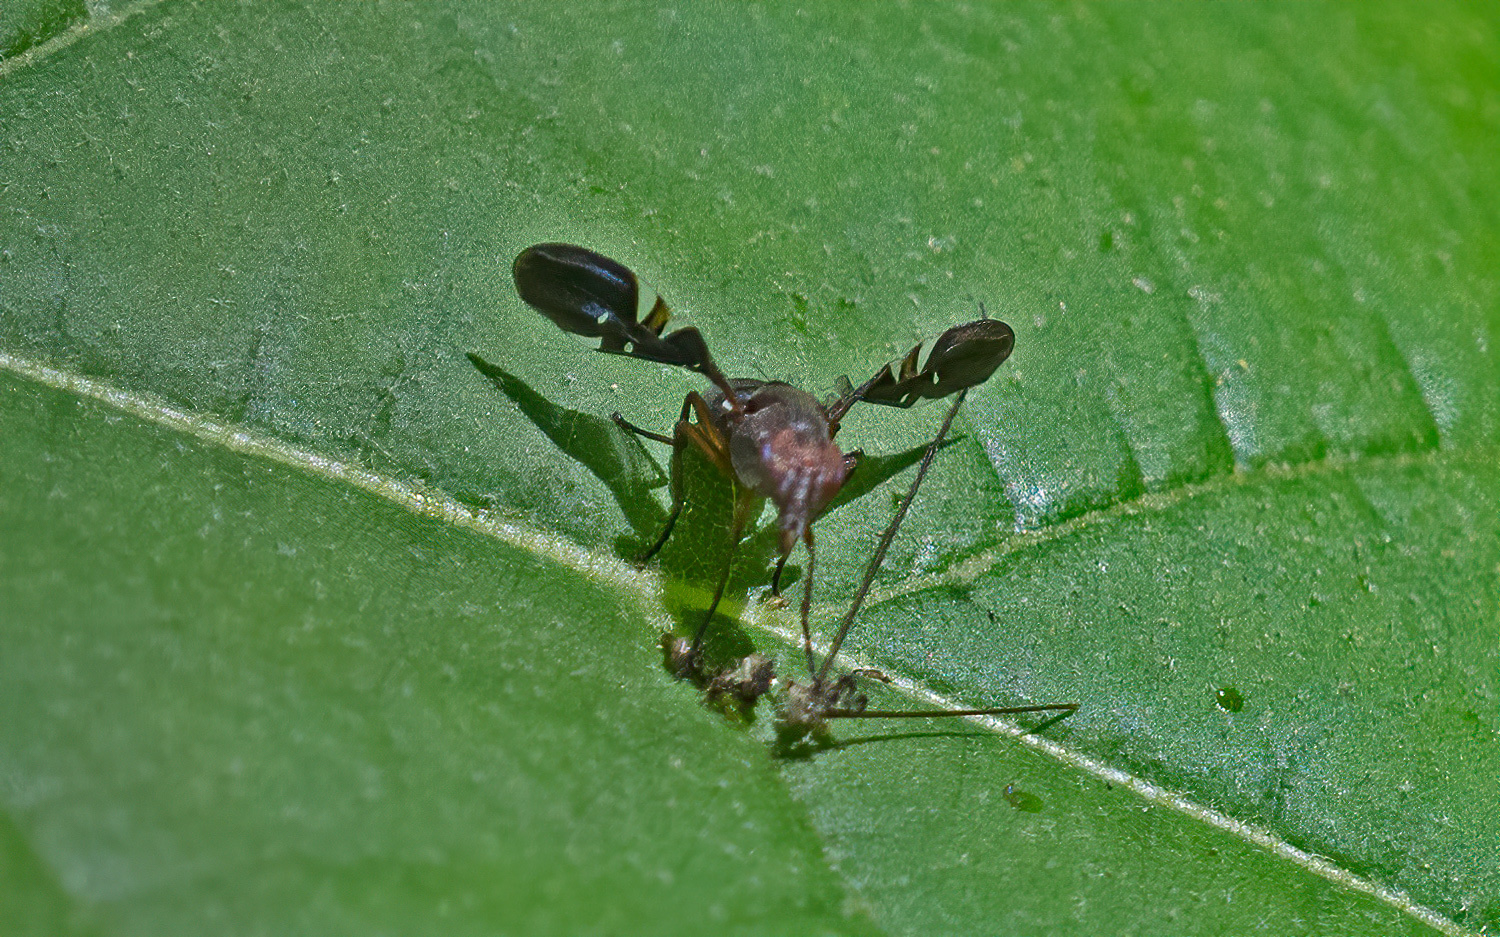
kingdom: Animalia
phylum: Arthropoda
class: Insecta
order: Diptera
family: Ulidiidae
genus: Delphinia
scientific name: Delphinia picta
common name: Common picture-winged fly
